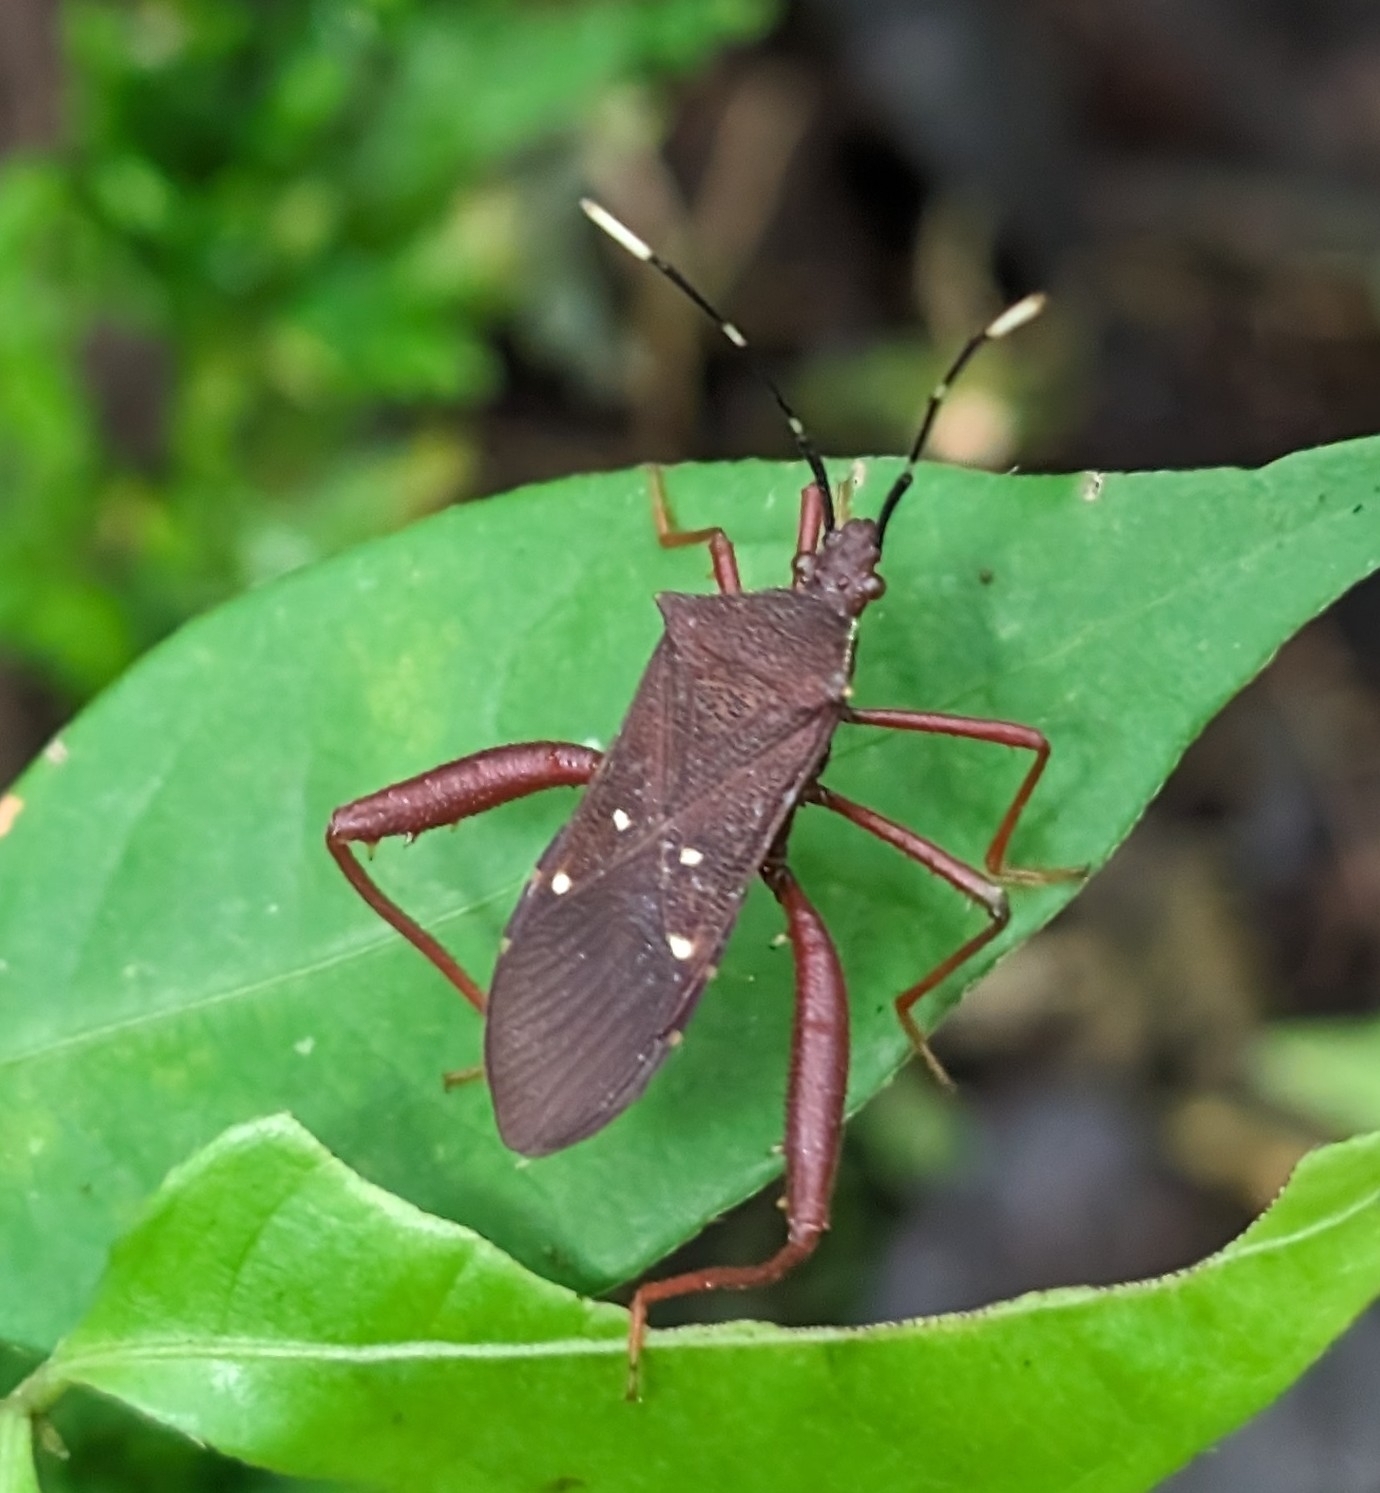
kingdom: Animalia
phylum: Arthropoda
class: Insecta
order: Hemiptera
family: Coreidae
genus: Leptoscelis
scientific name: Leptoscelis quadrisignatus
